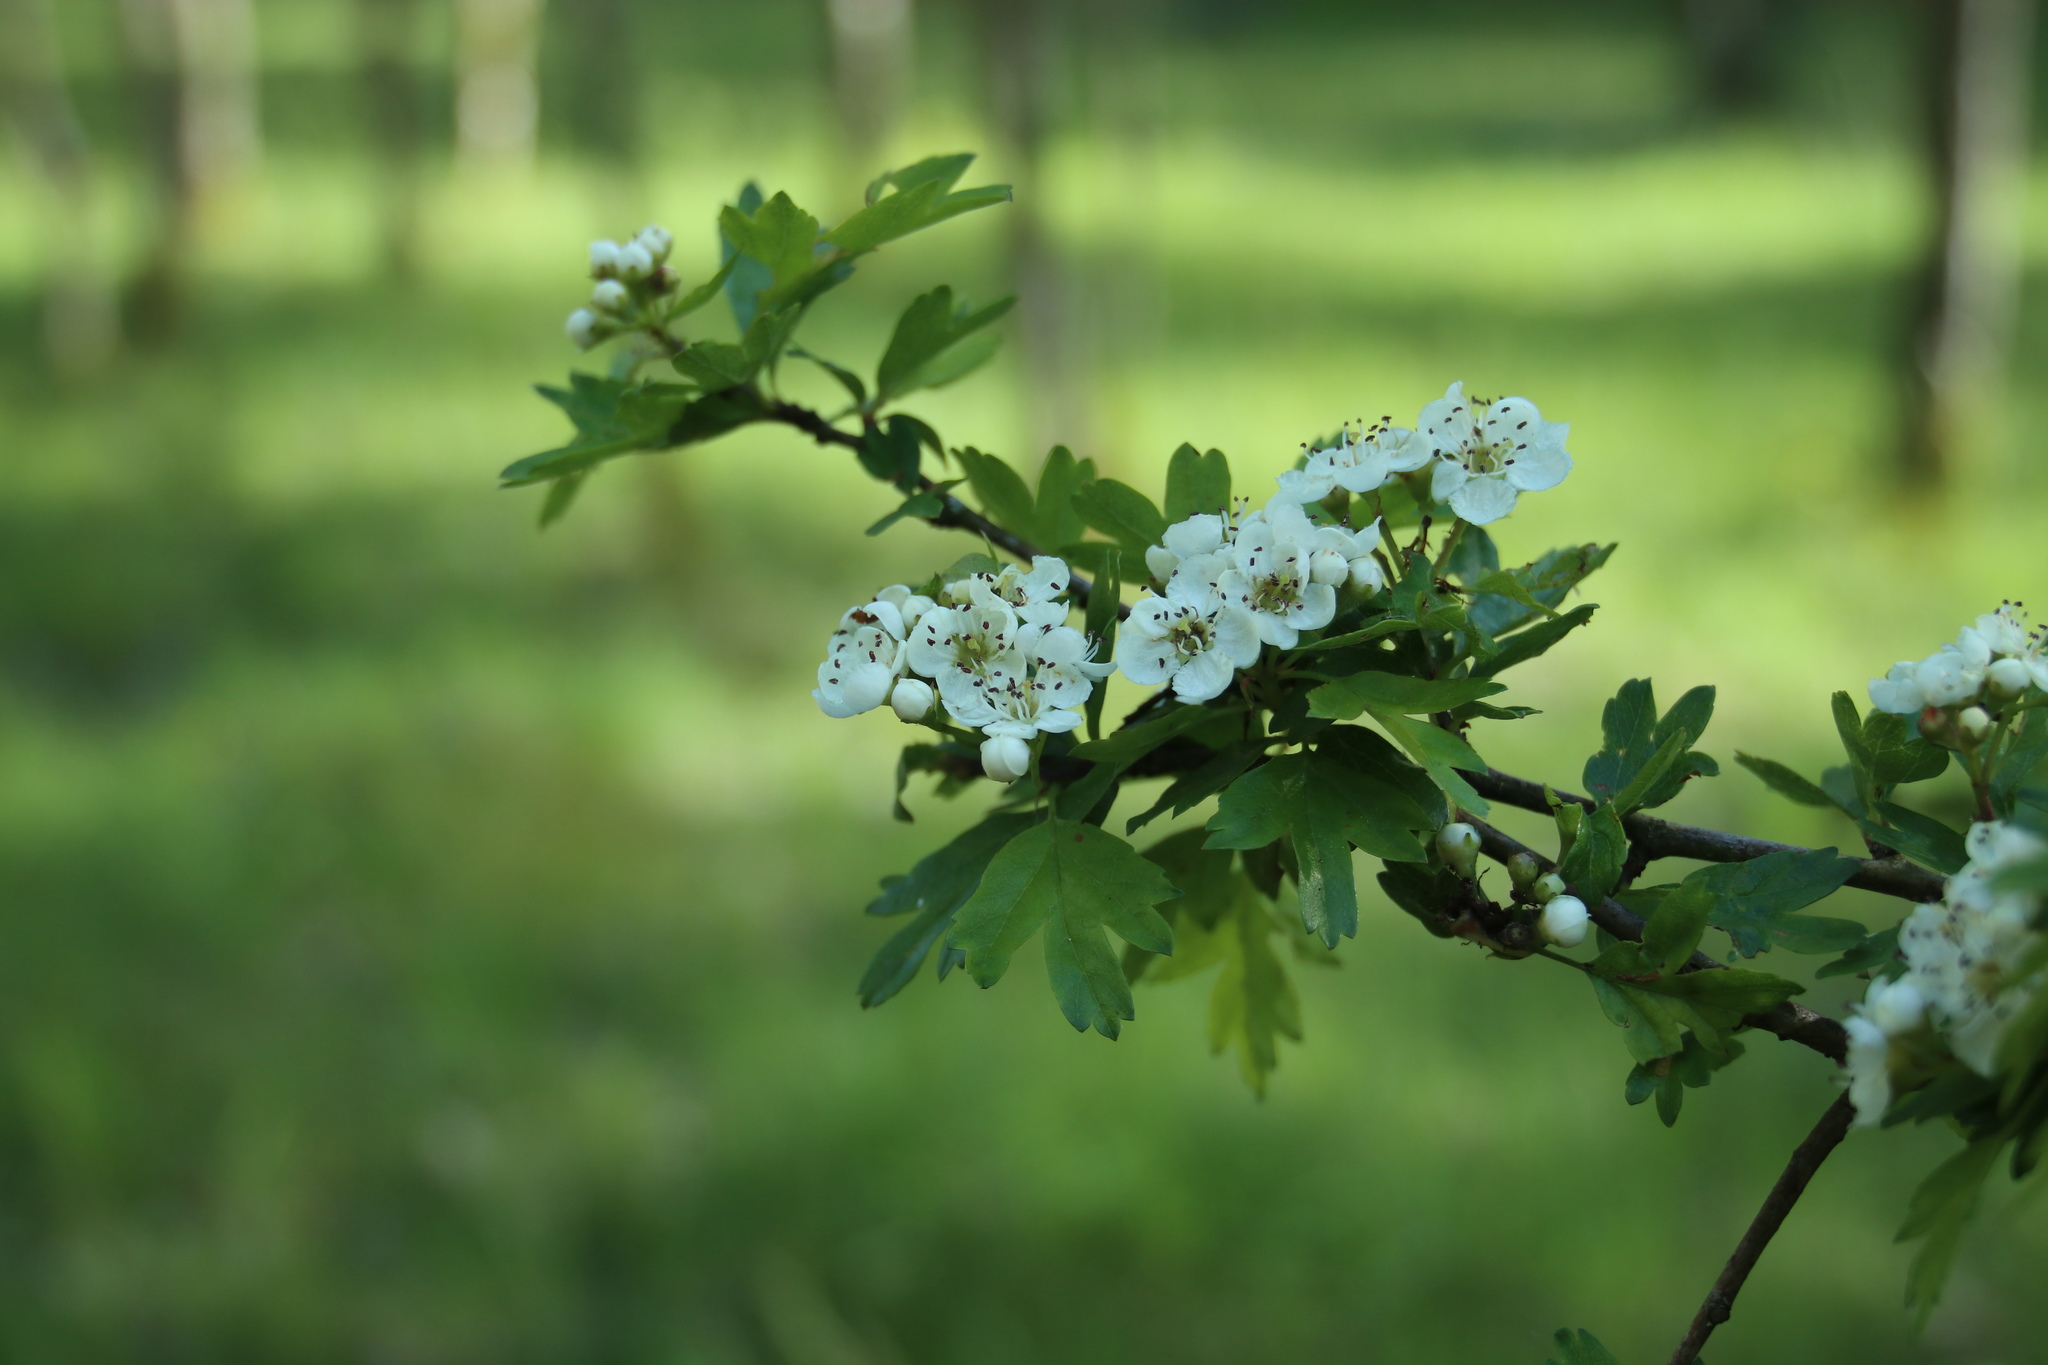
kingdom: Plantae
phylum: Tracheophyta
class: Magnoliopsida
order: Rosales
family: Rosaceae
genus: Crataegus
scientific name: Crataegus monogyna
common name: Hawthorn
